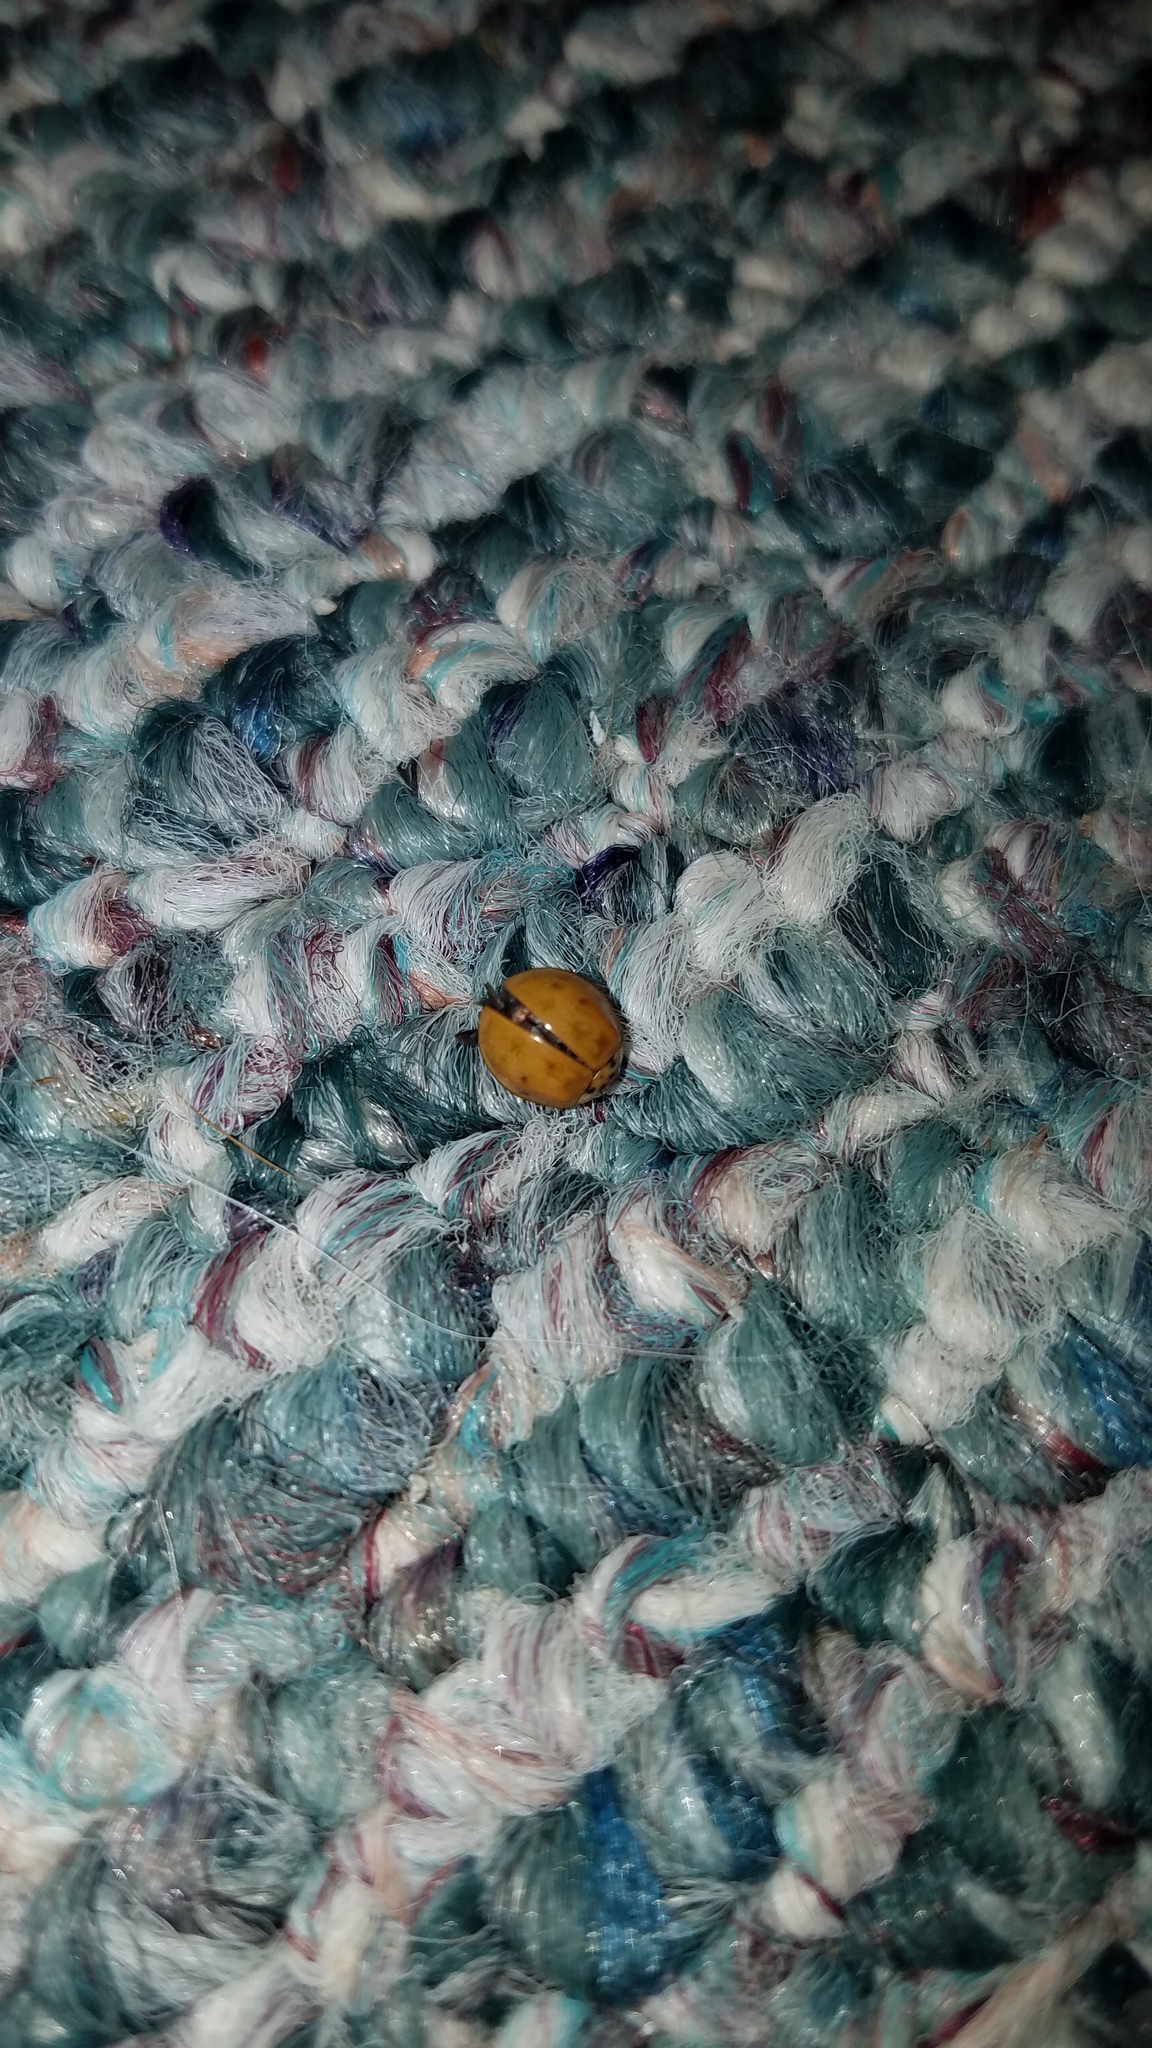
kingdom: Animalia
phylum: Arthropoda
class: Insecta
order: Coleoptera
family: Coccinellidae
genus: Harmonia
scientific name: Harmonia axyridis
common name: Harlequin ladybird
